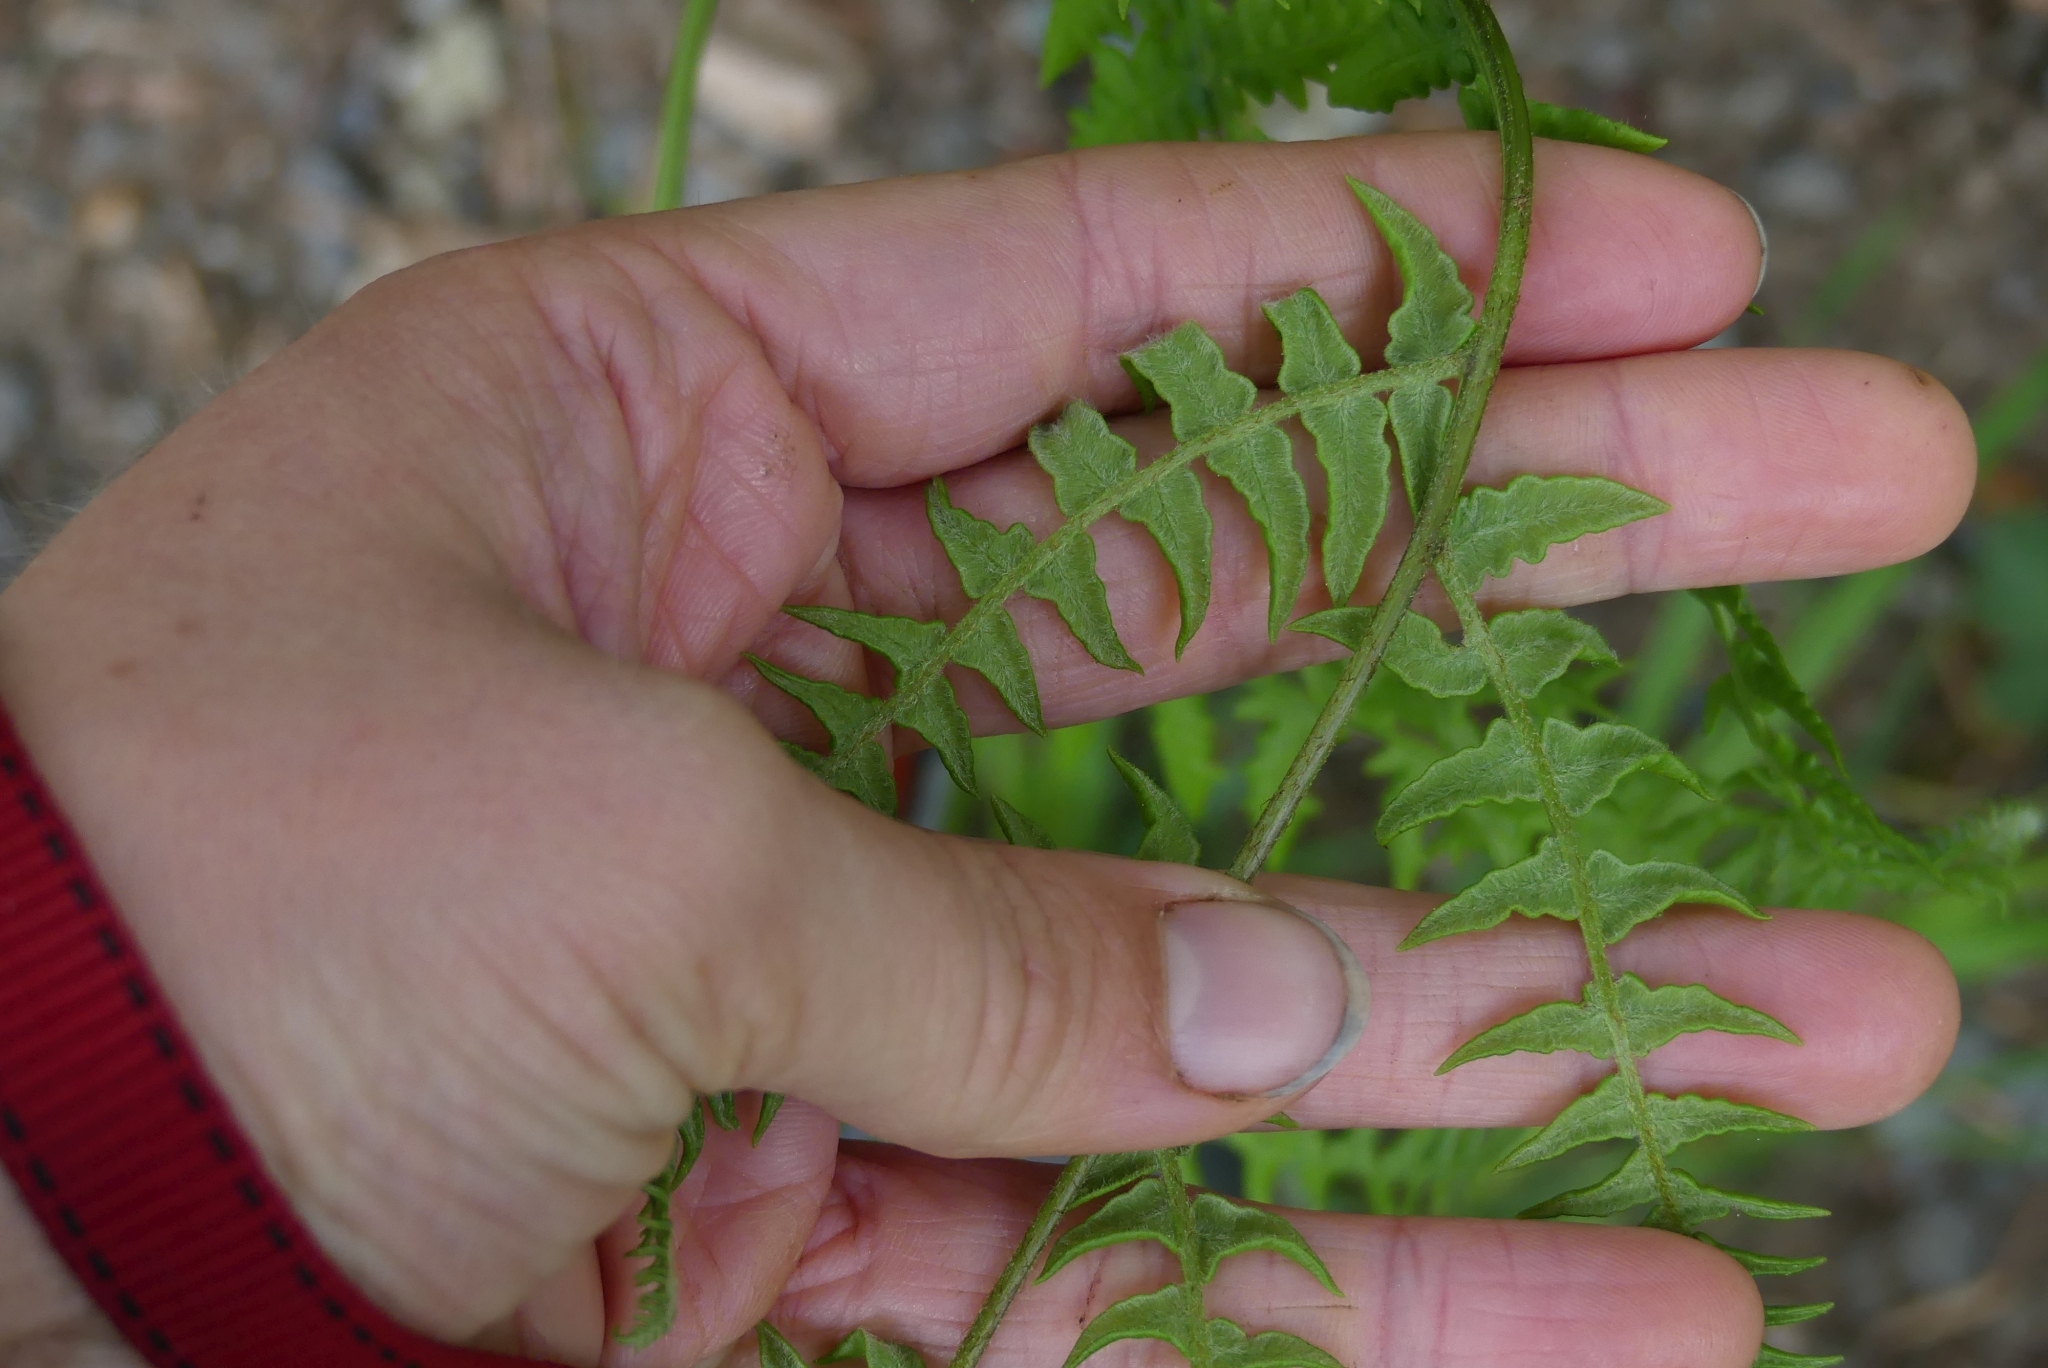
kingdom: Plantae
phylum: Tracheophyta
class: Polypodiopsida
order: Polypodiales
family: Dennstaedtiaceae
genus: Pteridium
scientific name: Pteridium aquilinum
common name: Bracken
